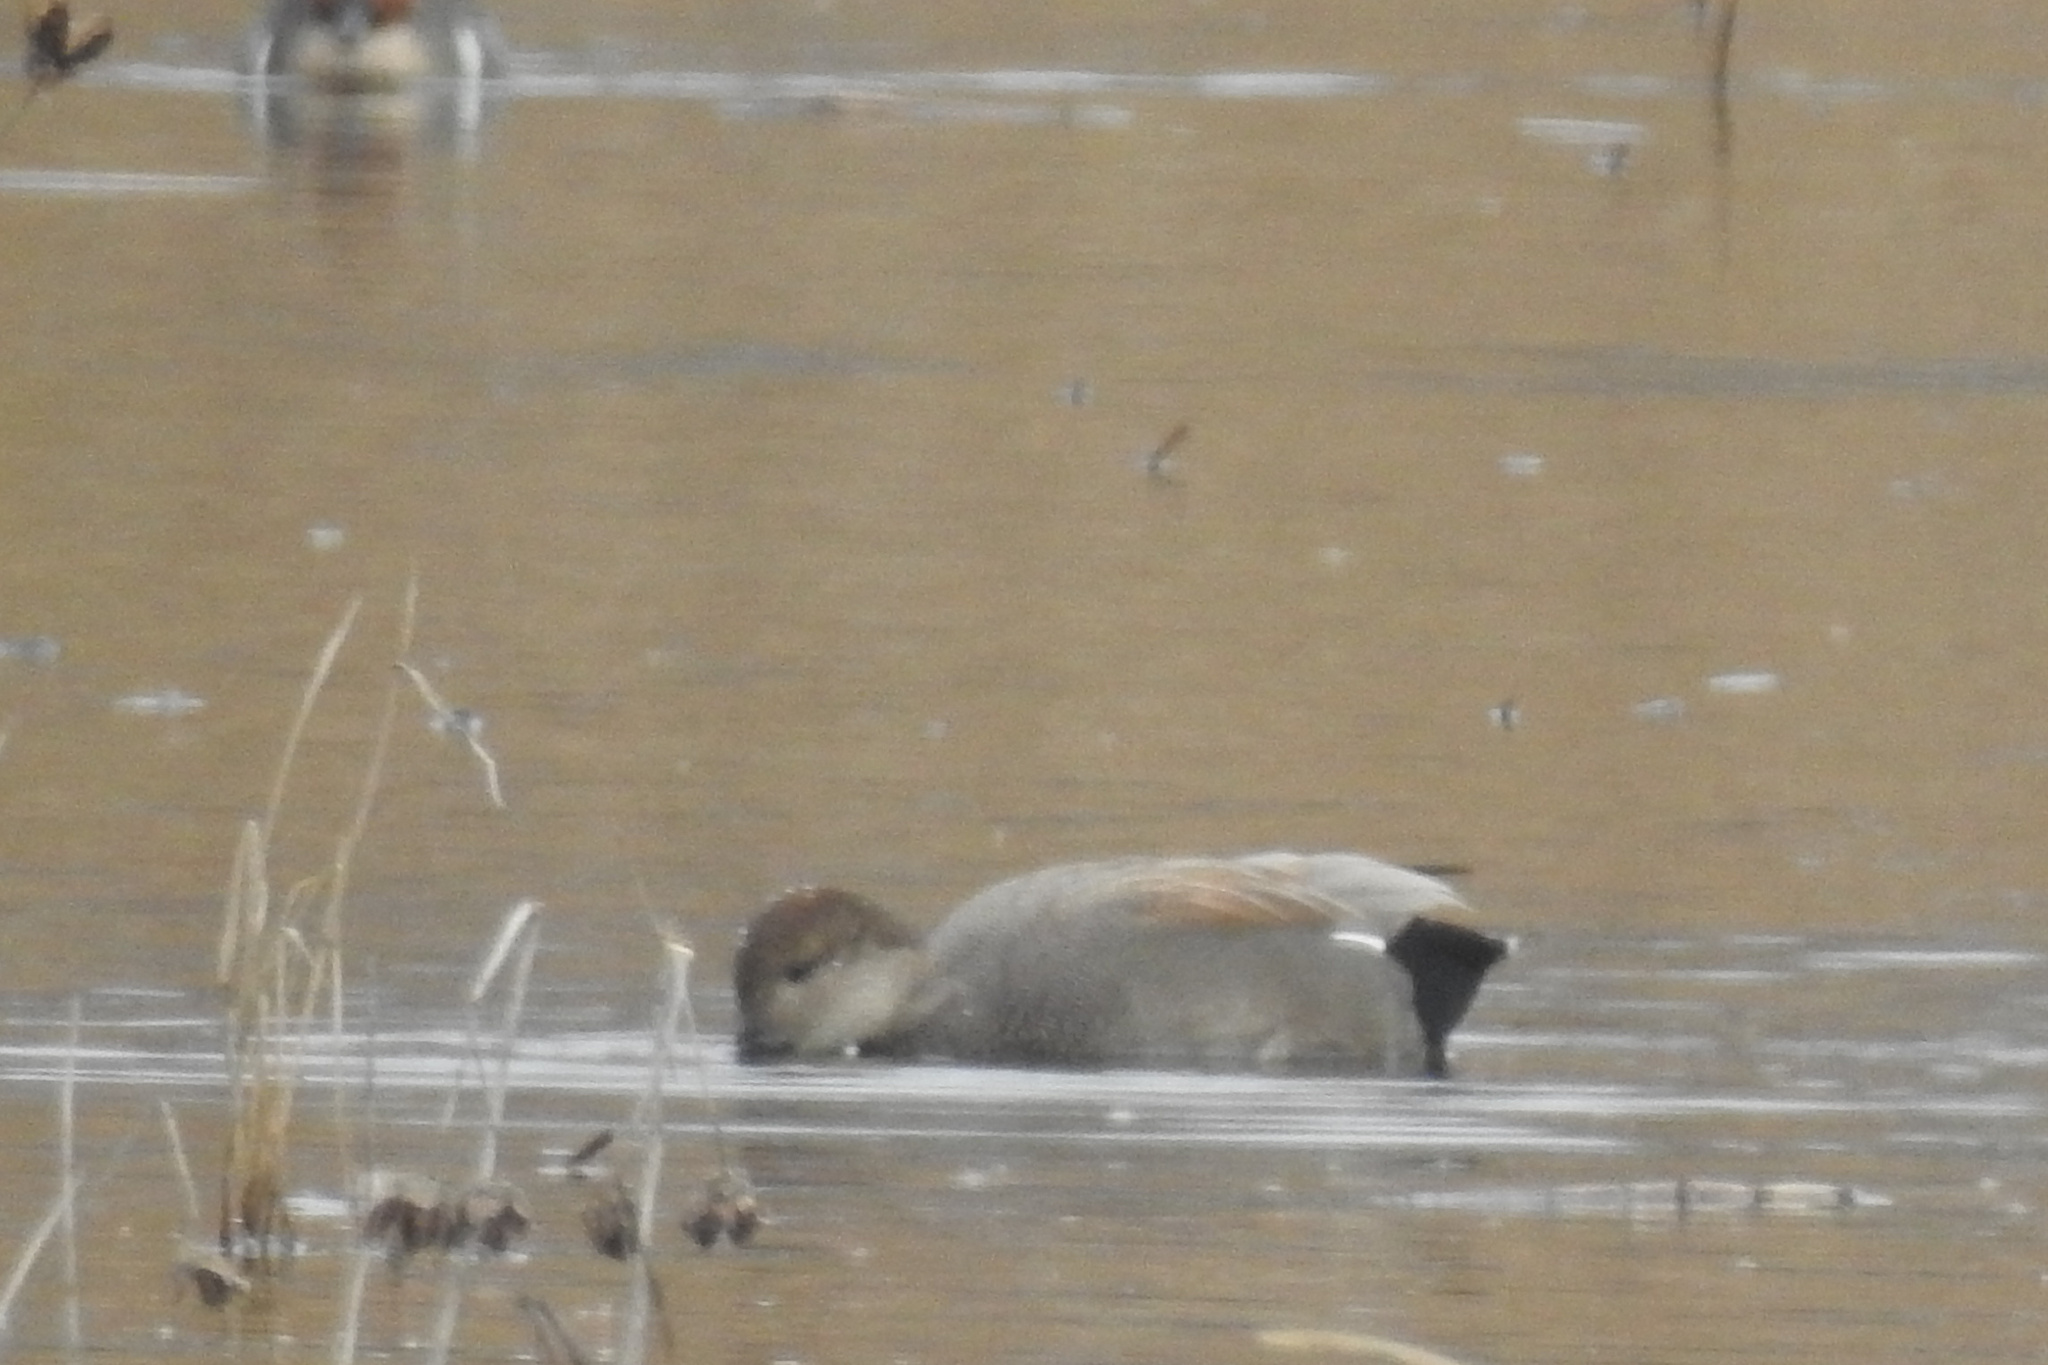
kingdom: Animalia
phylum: Chordata
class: Aves
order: Anseriformes
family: Anatidae
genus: Mareca
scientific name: Mareca strepera
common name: Gadwall
